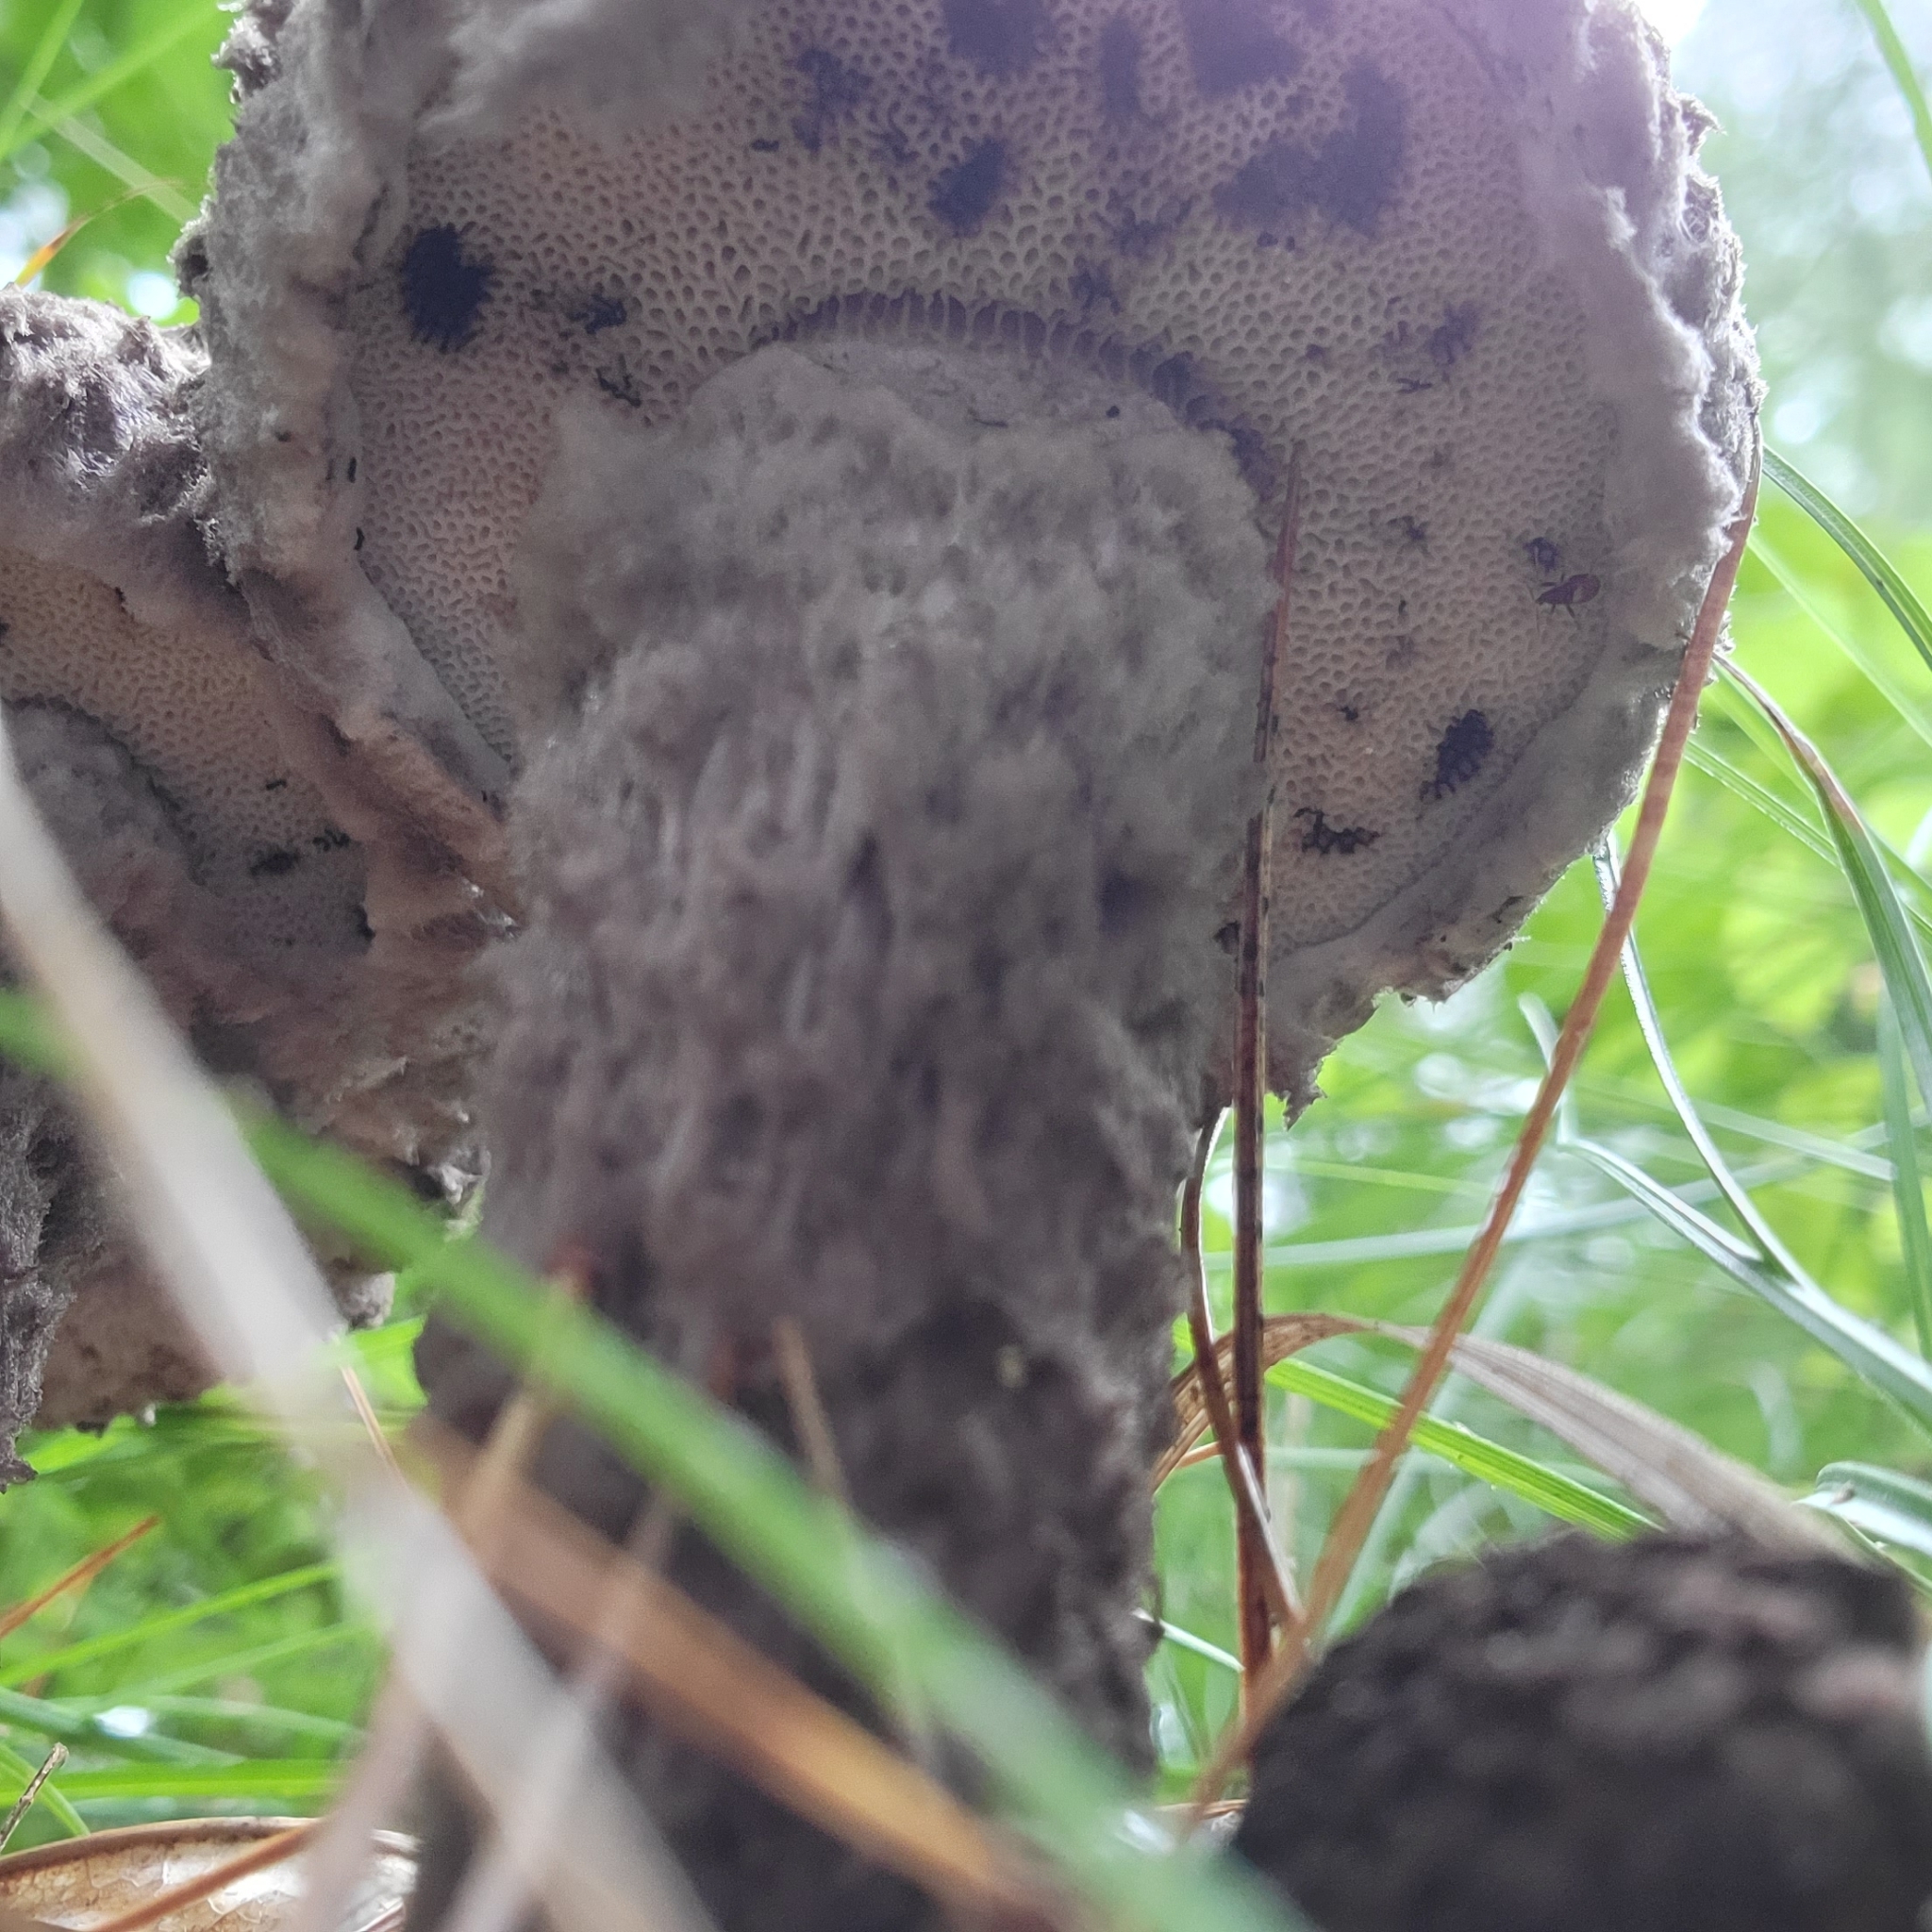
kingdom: Fungi
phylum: Basidiomycota
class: Agaricomycetes
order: Boletales
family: Boletaceae
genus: Strobilomyces
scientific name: Strobilomyces strobilaceus
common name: Old man of the woods
